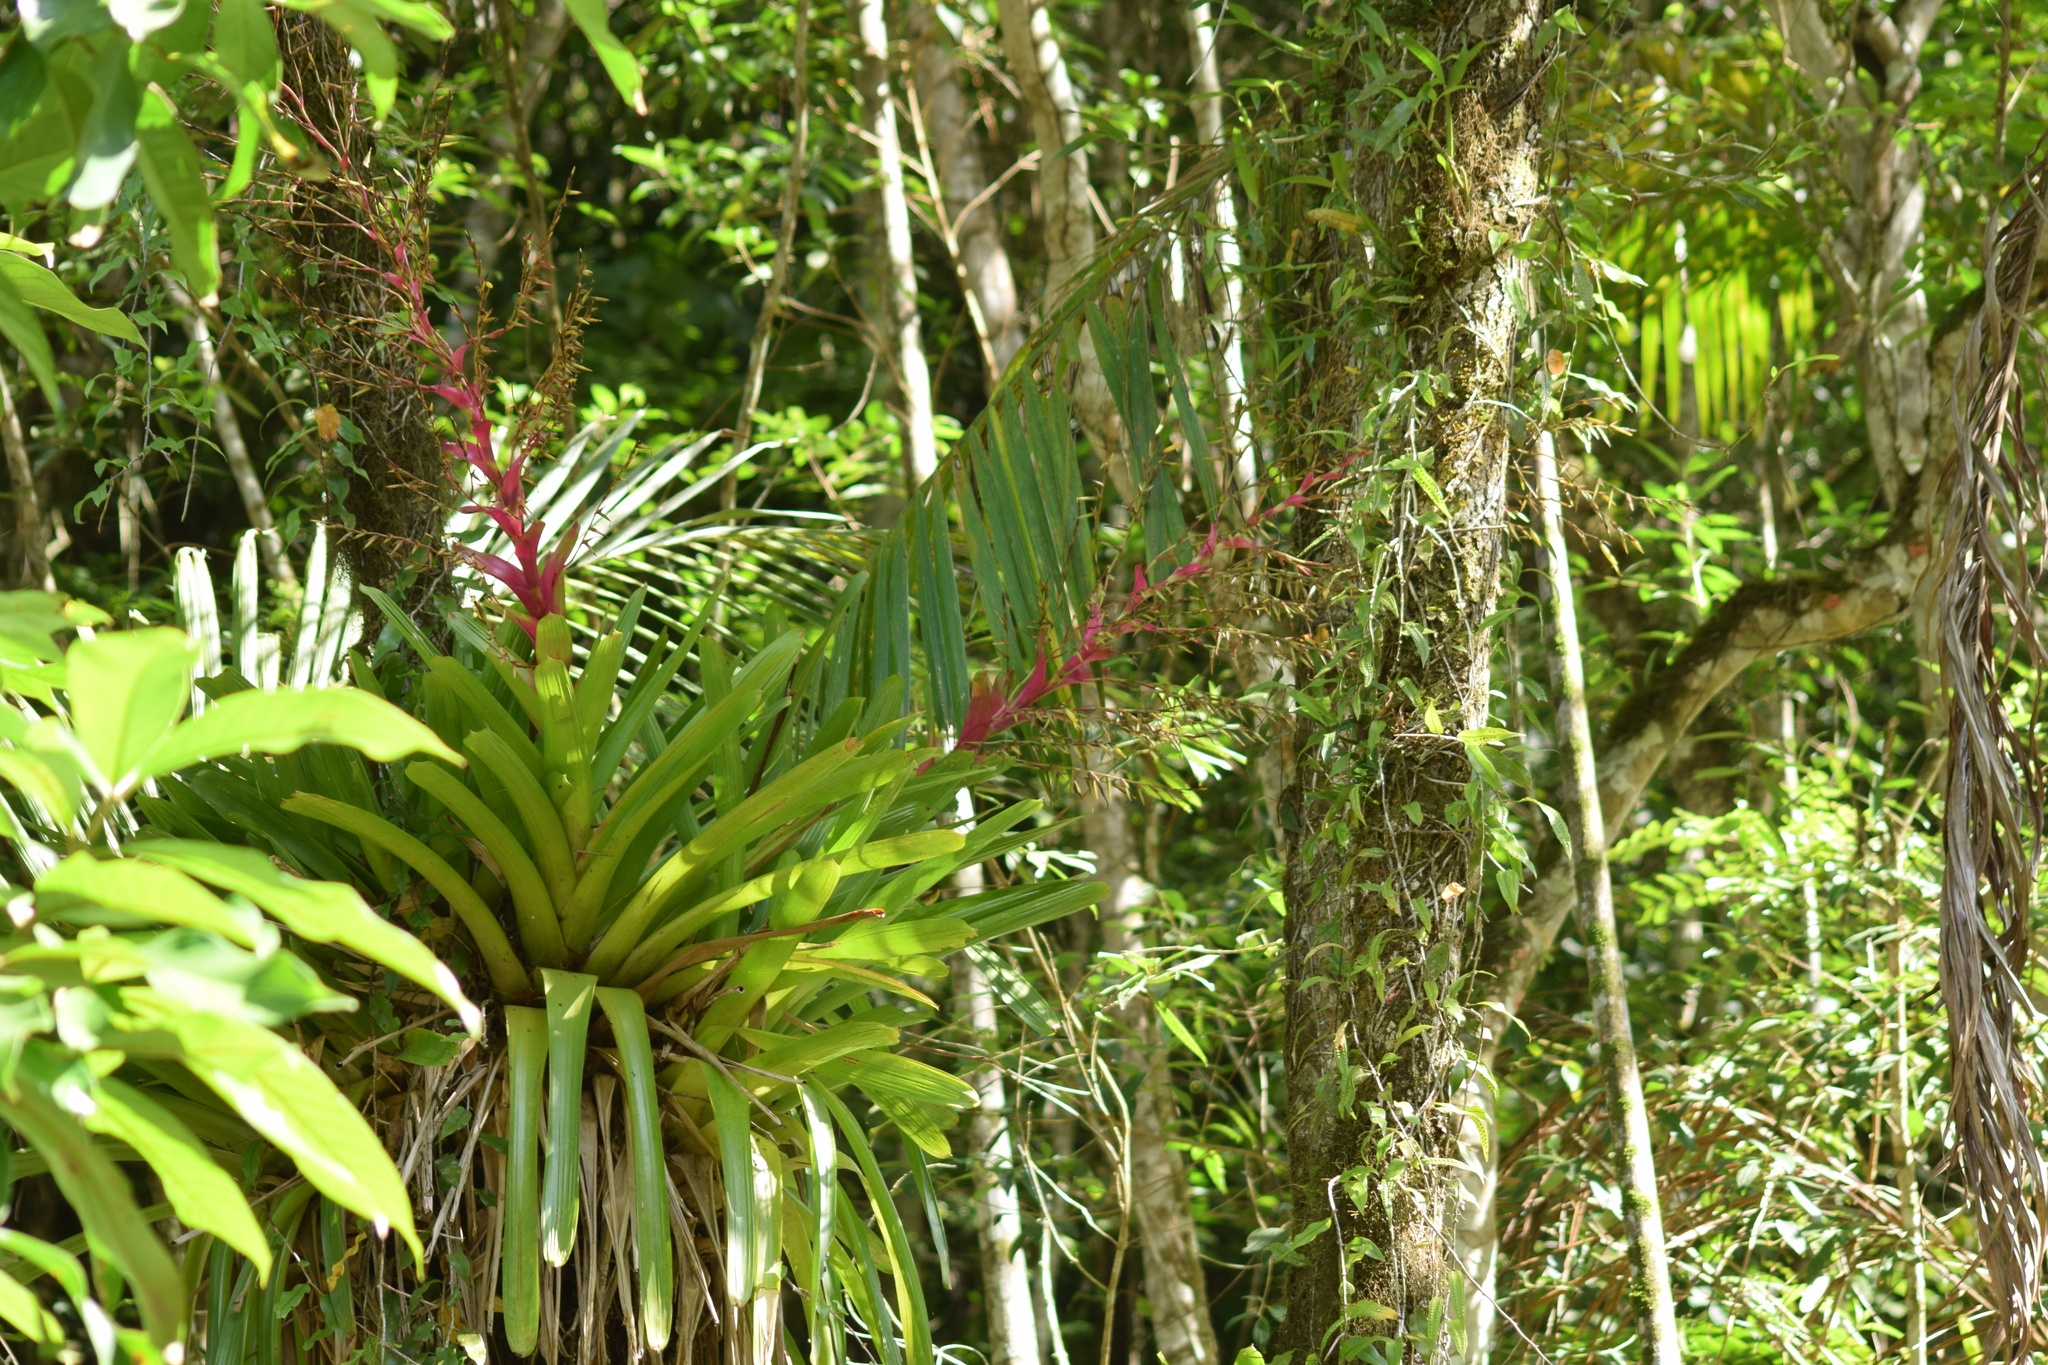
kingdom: Plantae
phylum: Tracheophyta
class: Liliopsida
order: Poales
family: Bromeliaceae
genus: Vriesea
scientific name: Vriesea philippocoburgi
